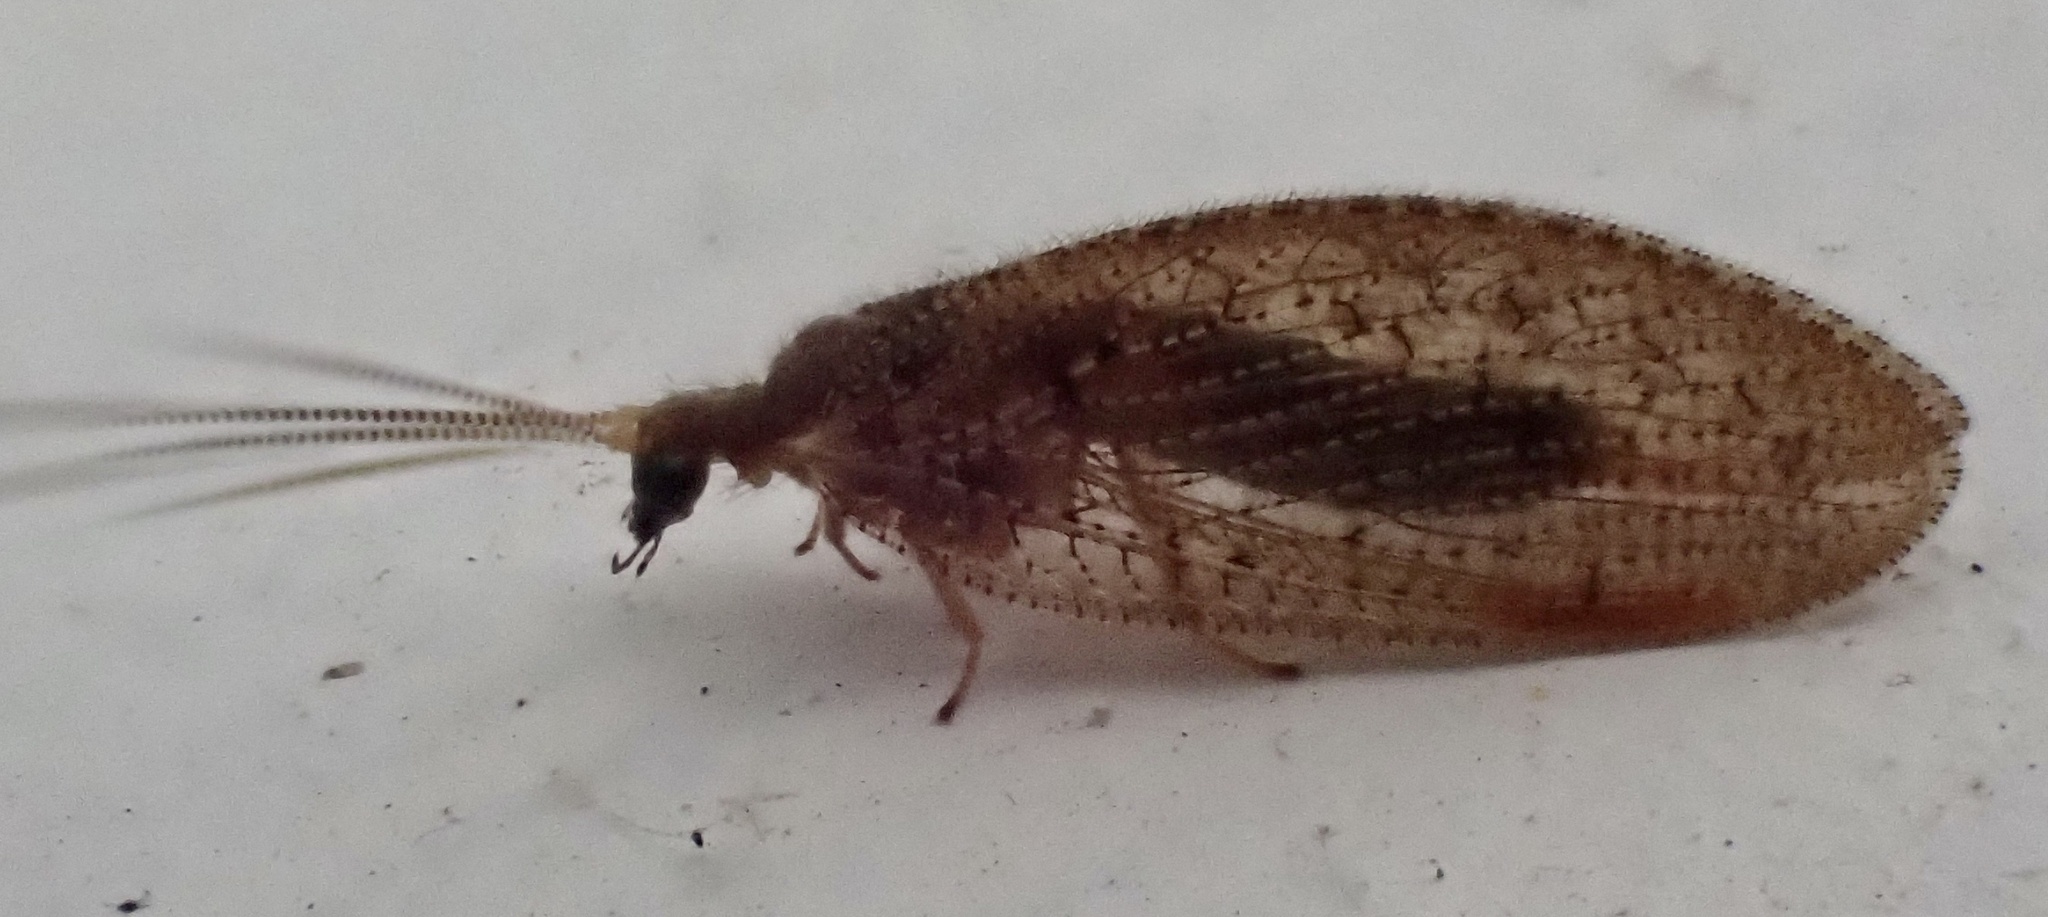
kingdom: Animalia
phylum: Arthropoda
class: Insecta
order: Neuroptera
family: Hemerobiidae
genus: Hemerobius
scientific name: Hemerobius stigma
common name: Brown pine lacewing
